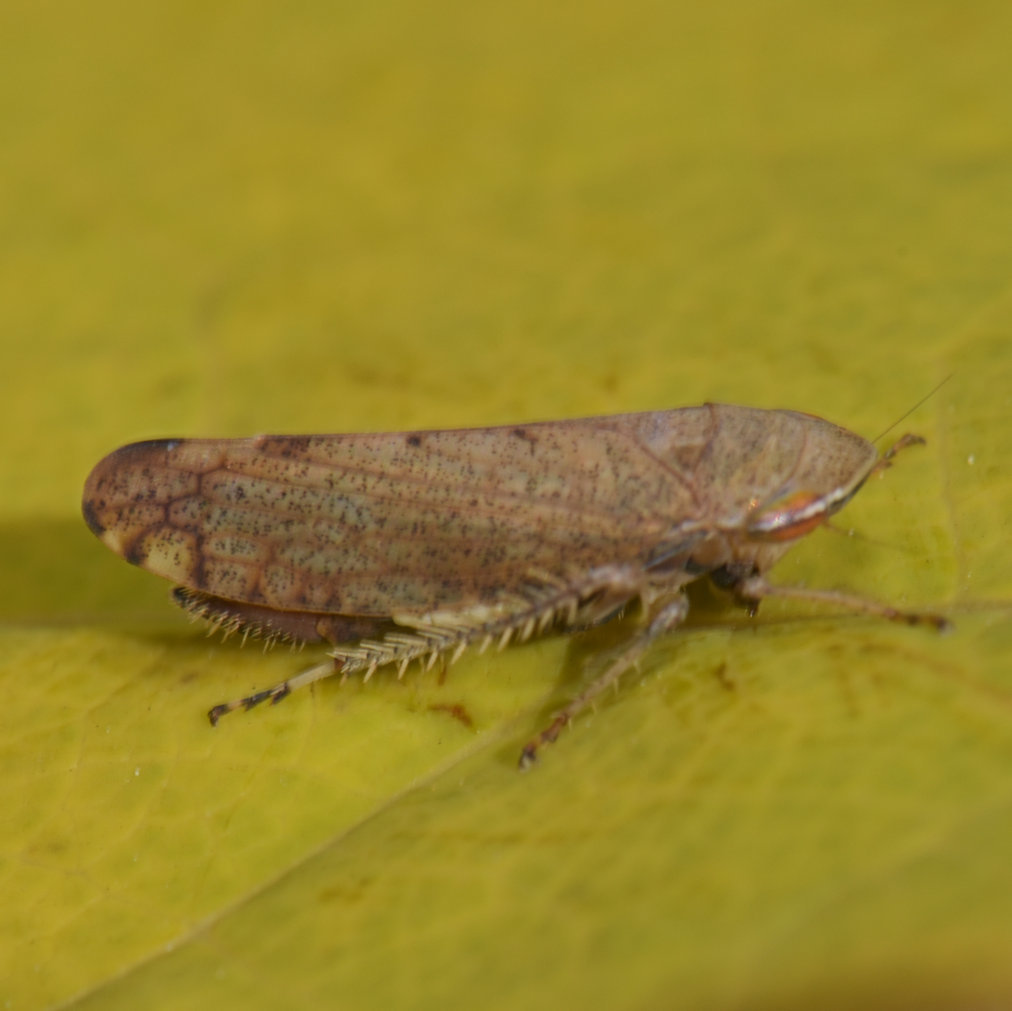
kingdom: Animalia
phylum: Arthropoda
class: Insecta
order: Hemiptera
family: Cicadellidae
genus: Fieberiella
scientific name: Fieberiella florii
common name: Flor’s leafhopper
